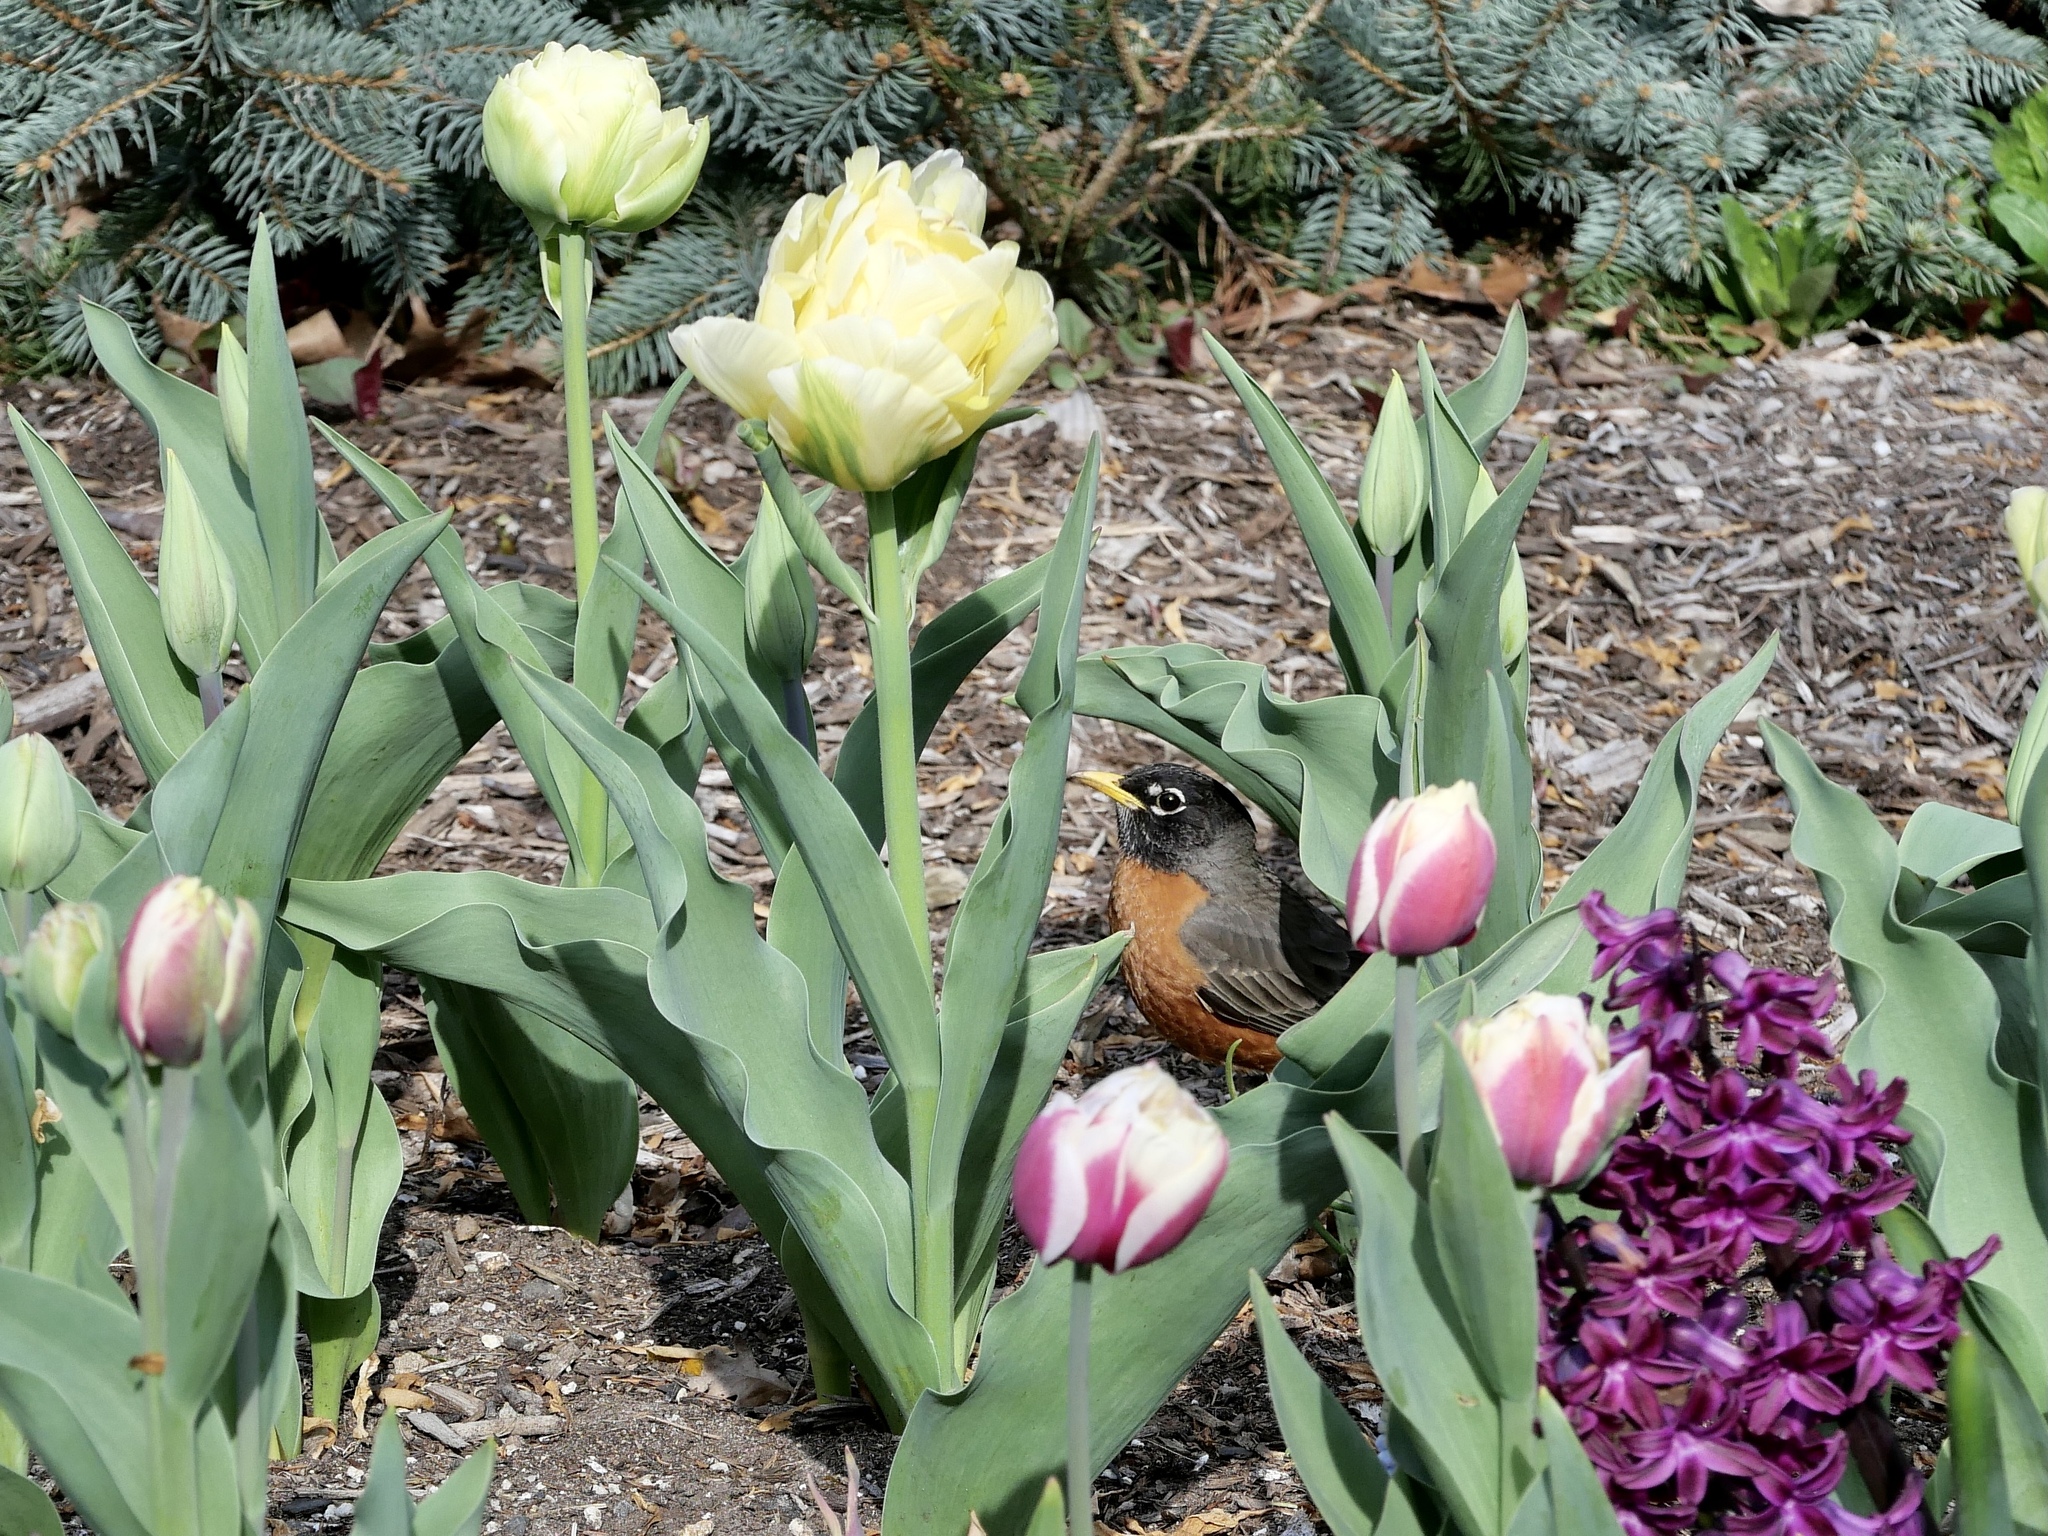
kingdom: Animalia
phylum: Chordata
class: Aves
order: Passeriformes
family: Turdidae
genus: Turdus
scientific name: Turdus migratorius
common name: American robin
